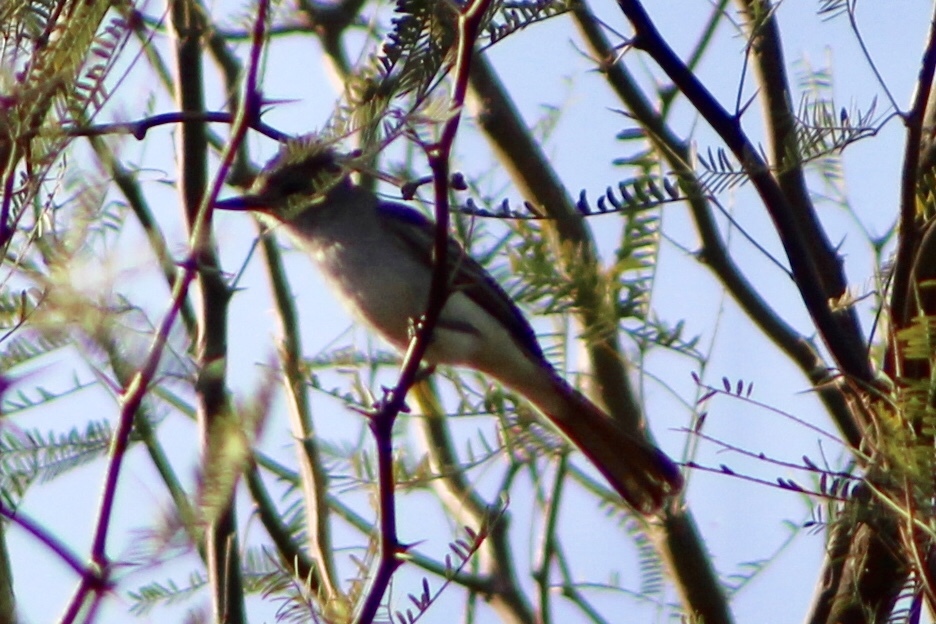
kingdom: Animalia
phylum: Chordata
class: Aves
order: Passeriformes
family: Tyrannidae
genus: Myiarchus
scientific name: Myiarchus cinerascens
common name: Ash-throated flycatcher
